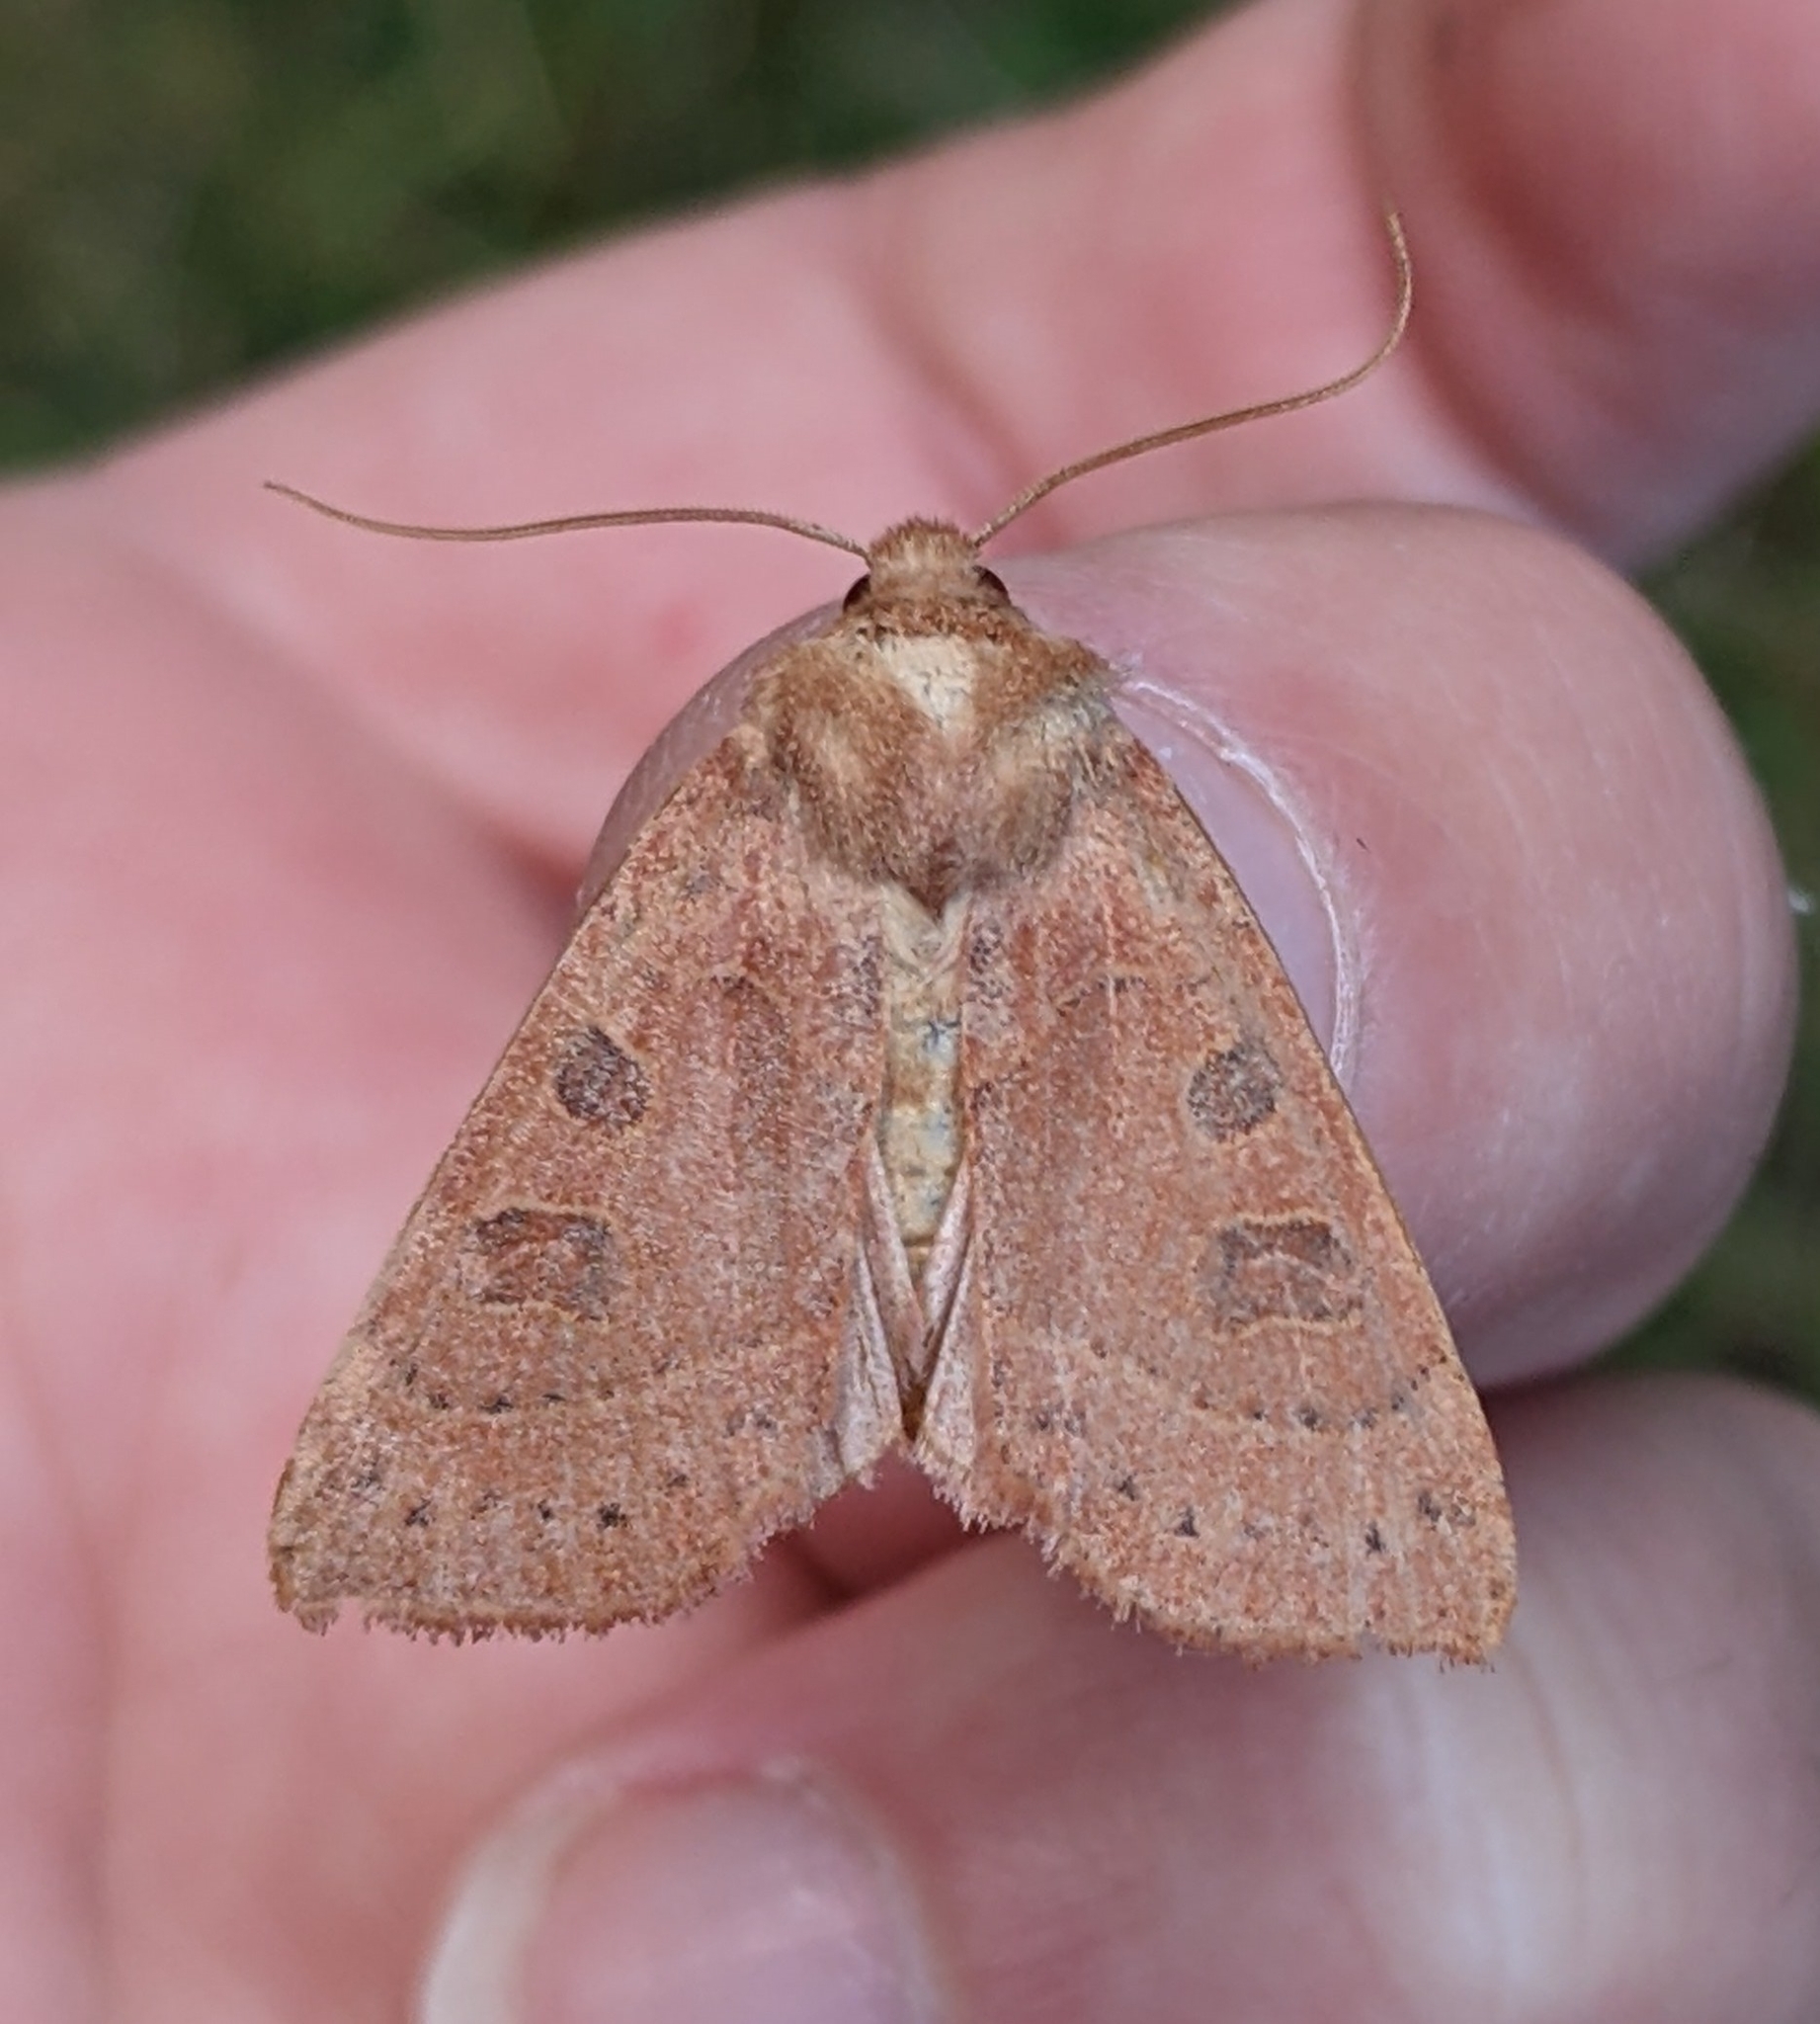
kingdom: Animalia
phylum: Arthropoda
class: Insecta
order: Lepidoptera
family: Noctuidae
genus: Mesogona
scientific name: Mesogona olivata
